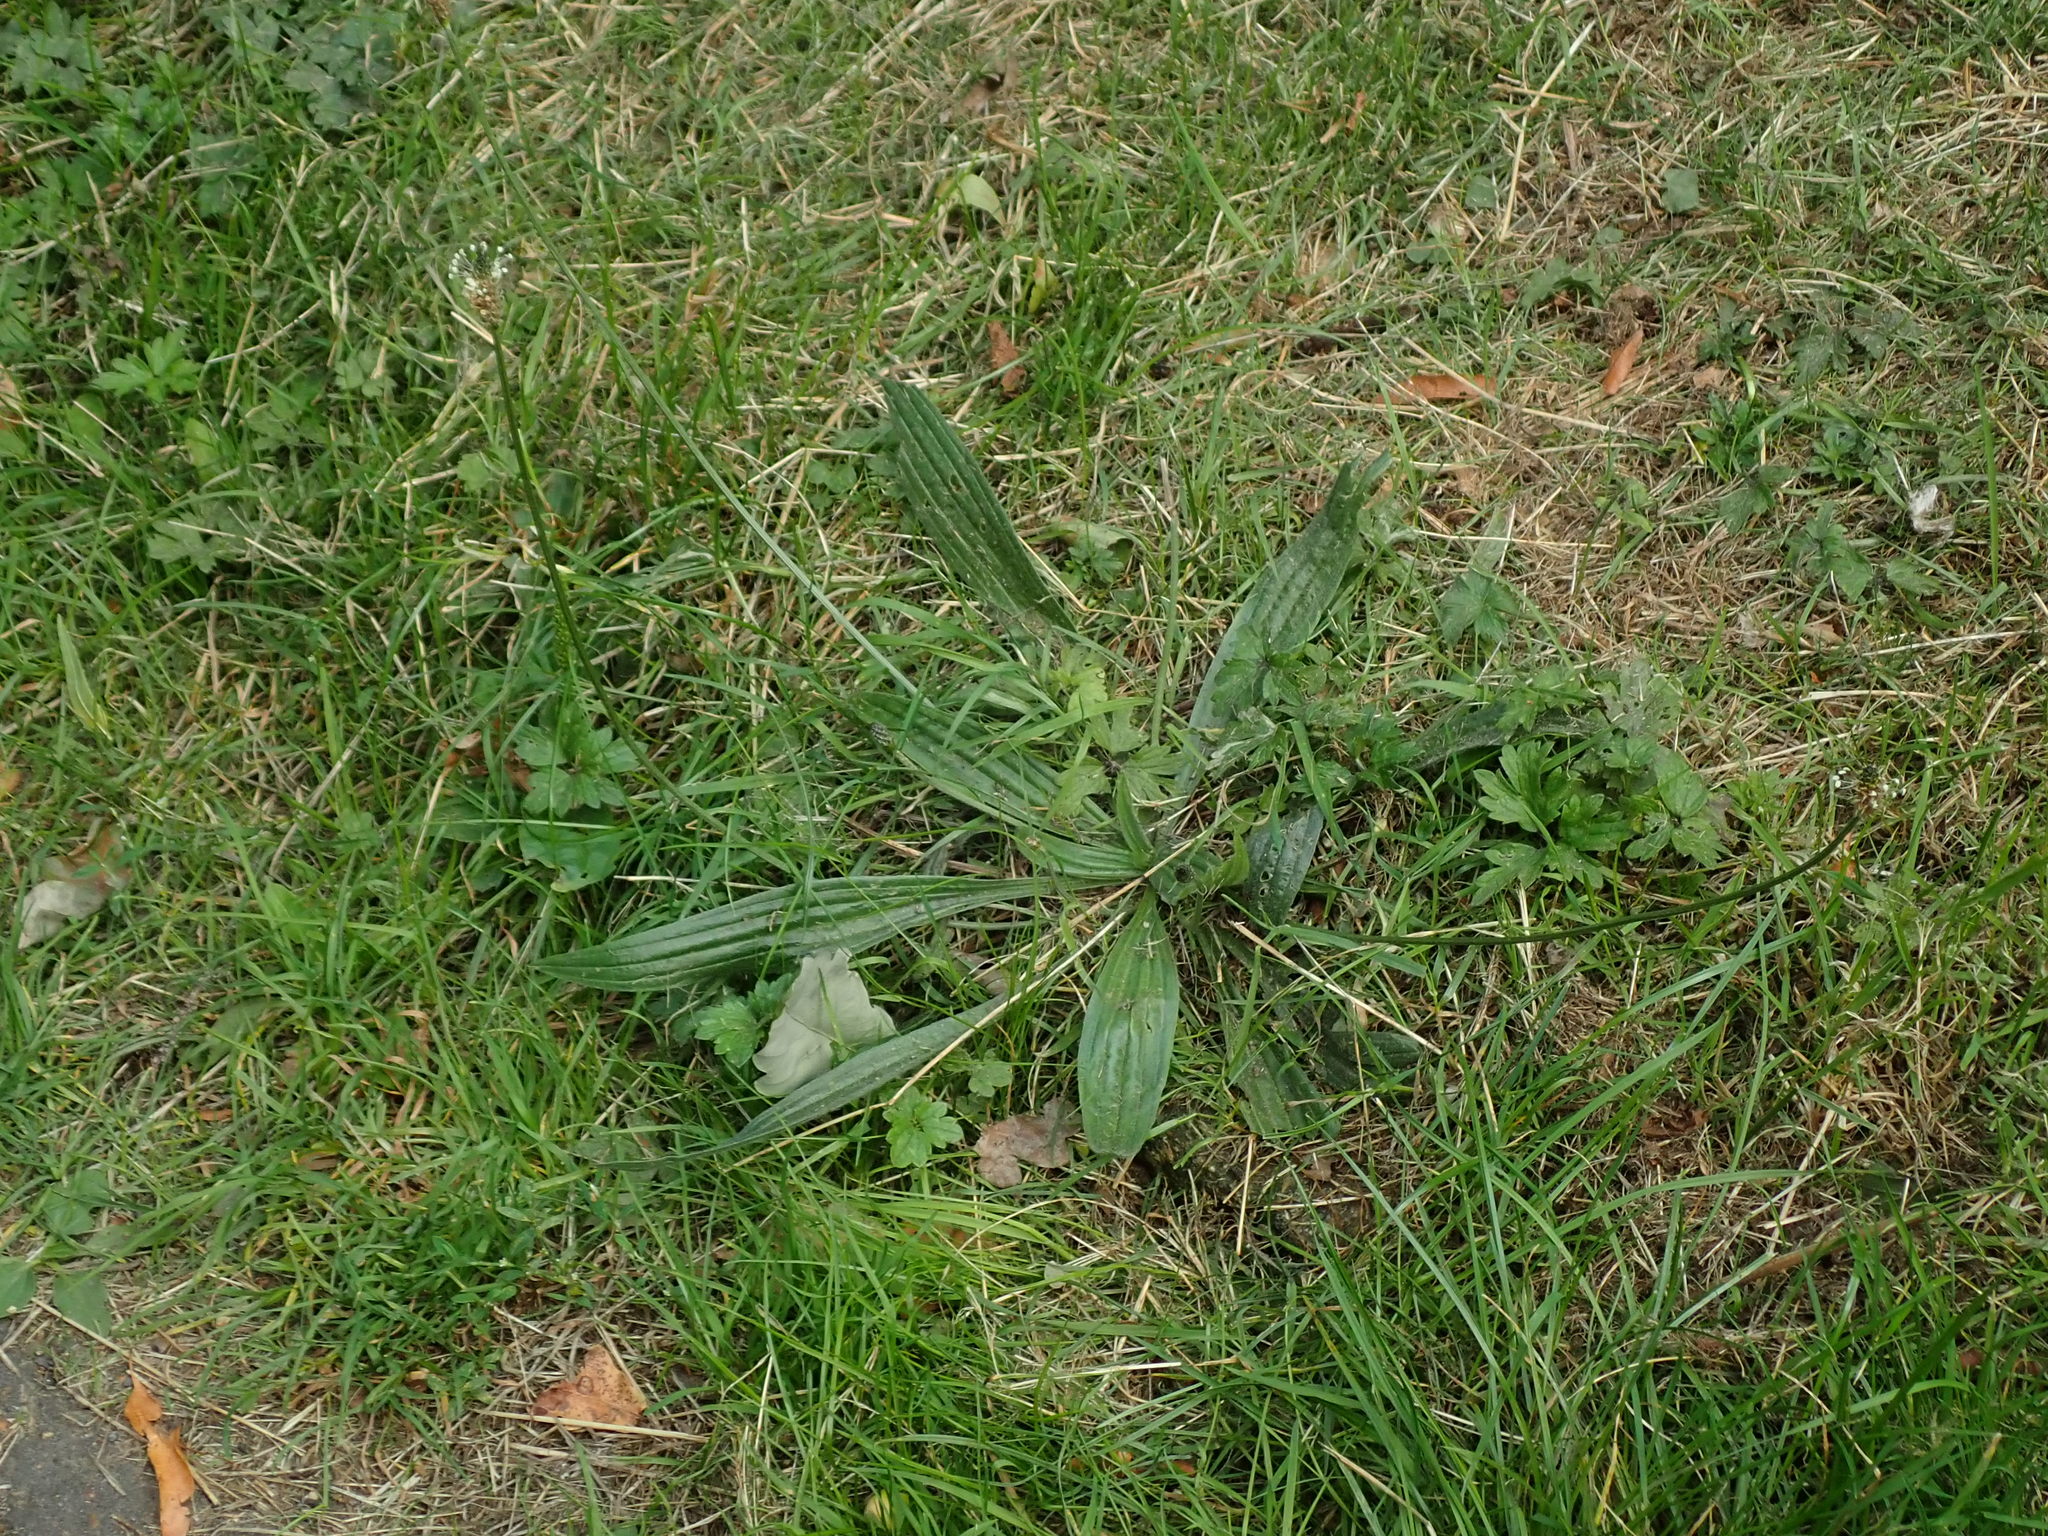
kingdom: Plantae
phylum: Tracheophyta
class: Magnoliopsida
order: Lamiales
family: Plantaginaceae
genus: Plantago
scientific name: Plantago lanceolata
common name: Ribwort plantain
